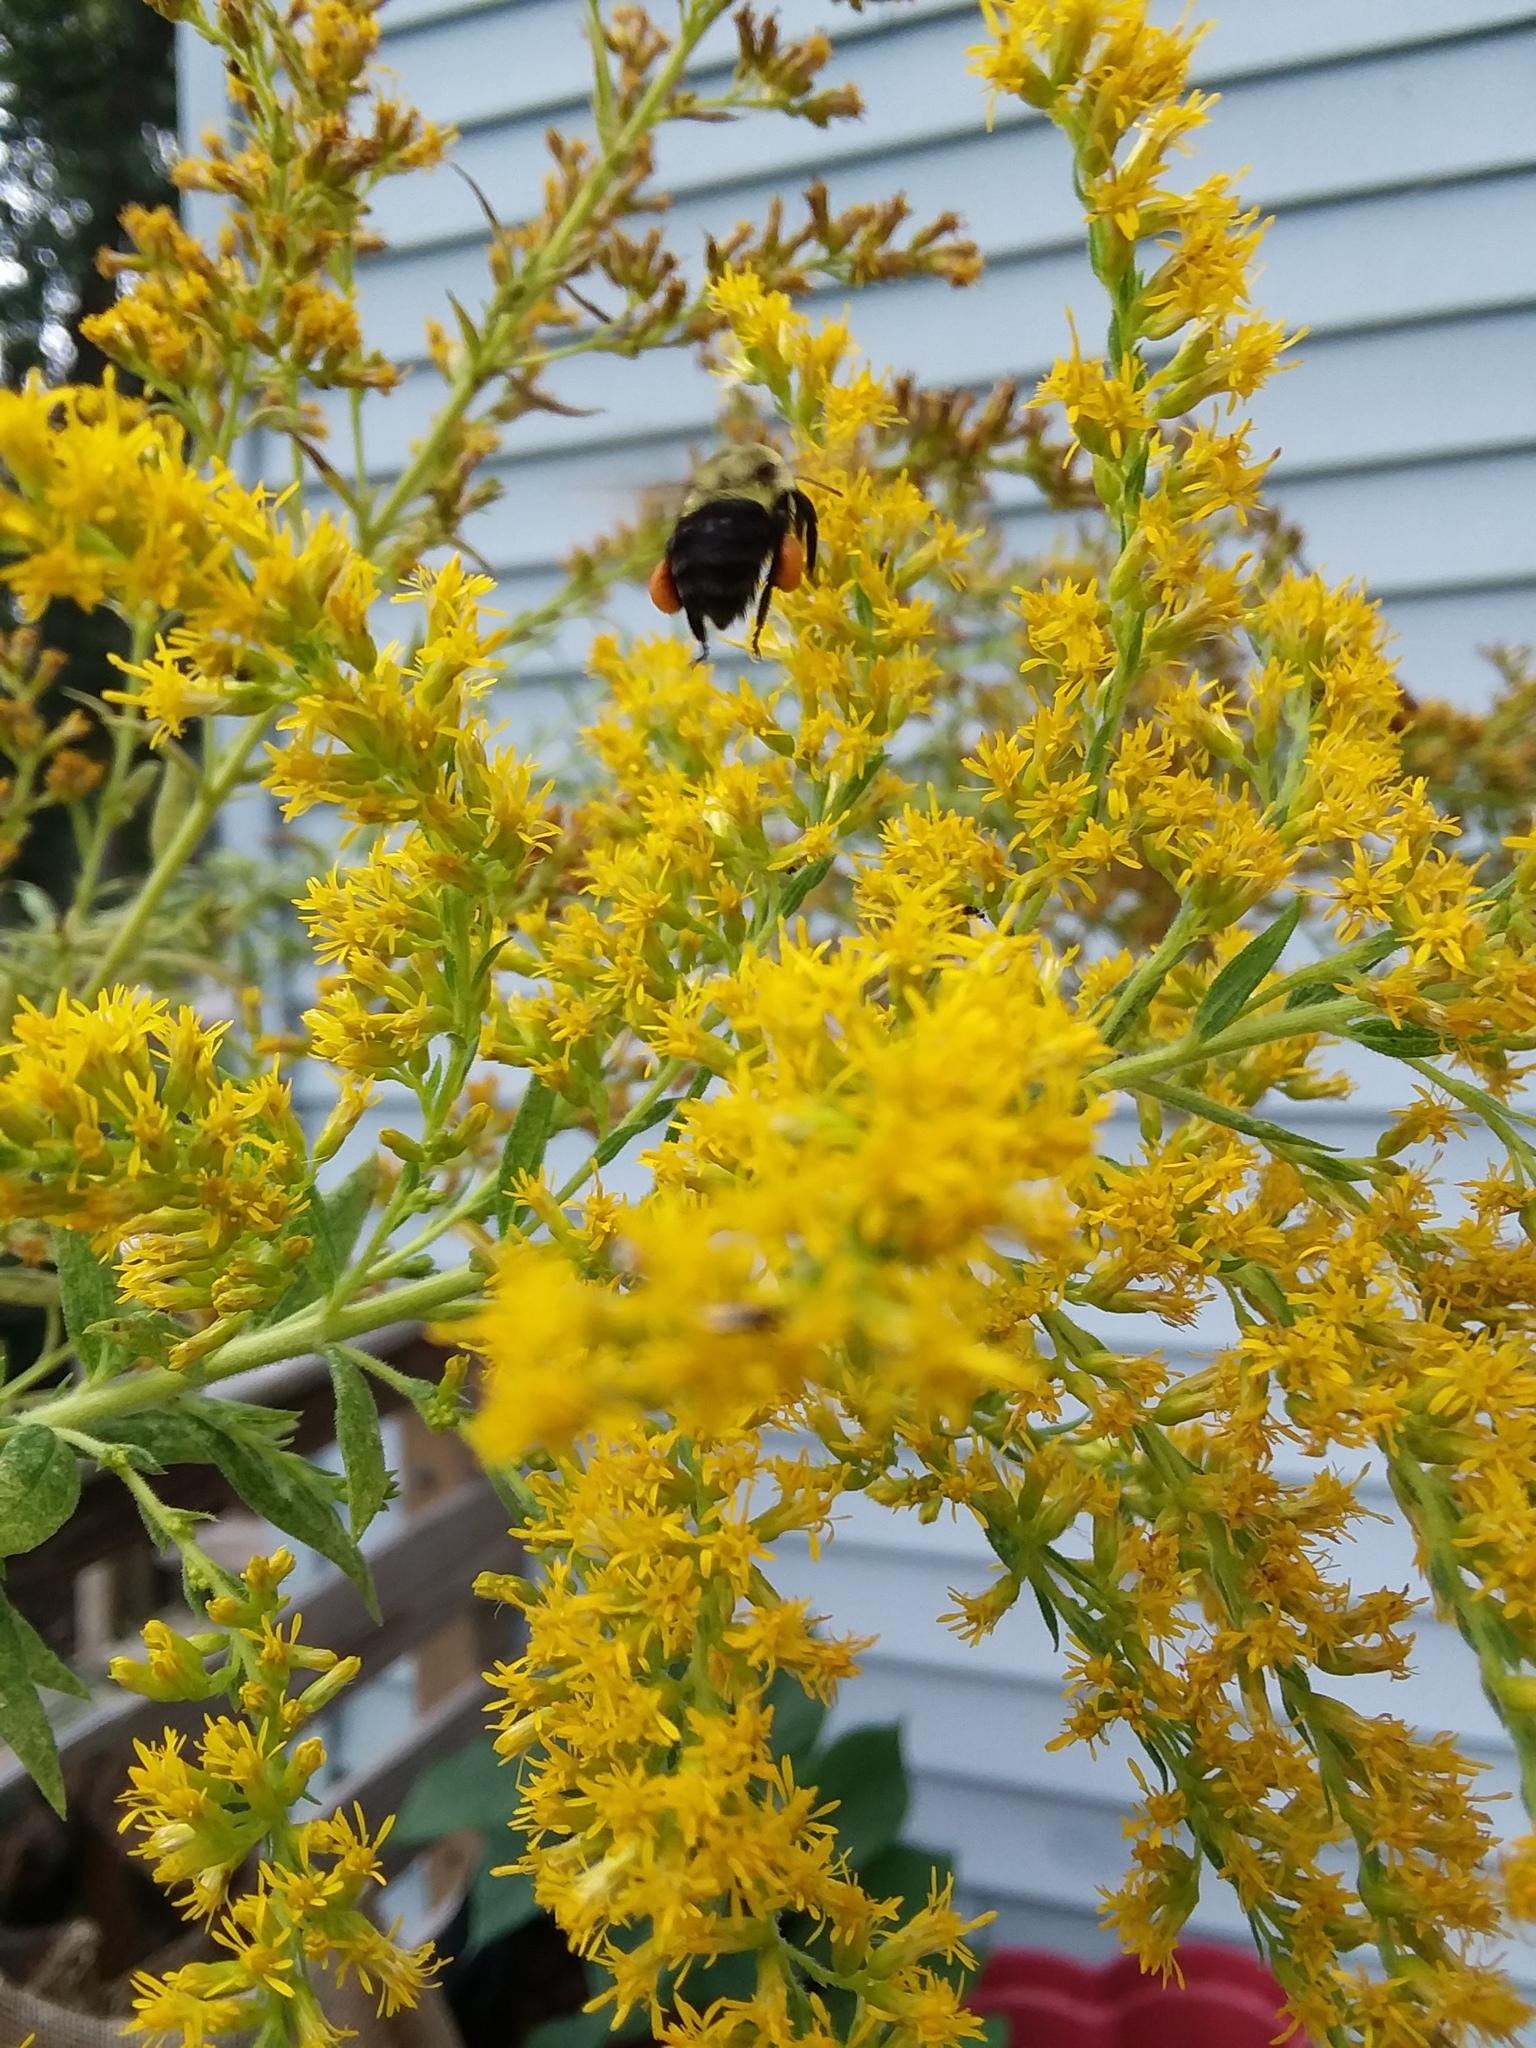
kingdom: Animalia
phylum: Arthropoda
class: Insecta
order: Hymenoptera
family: Apidae
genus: Bombus
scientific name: Bombus impatiens
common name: Common eastern bumble bee
